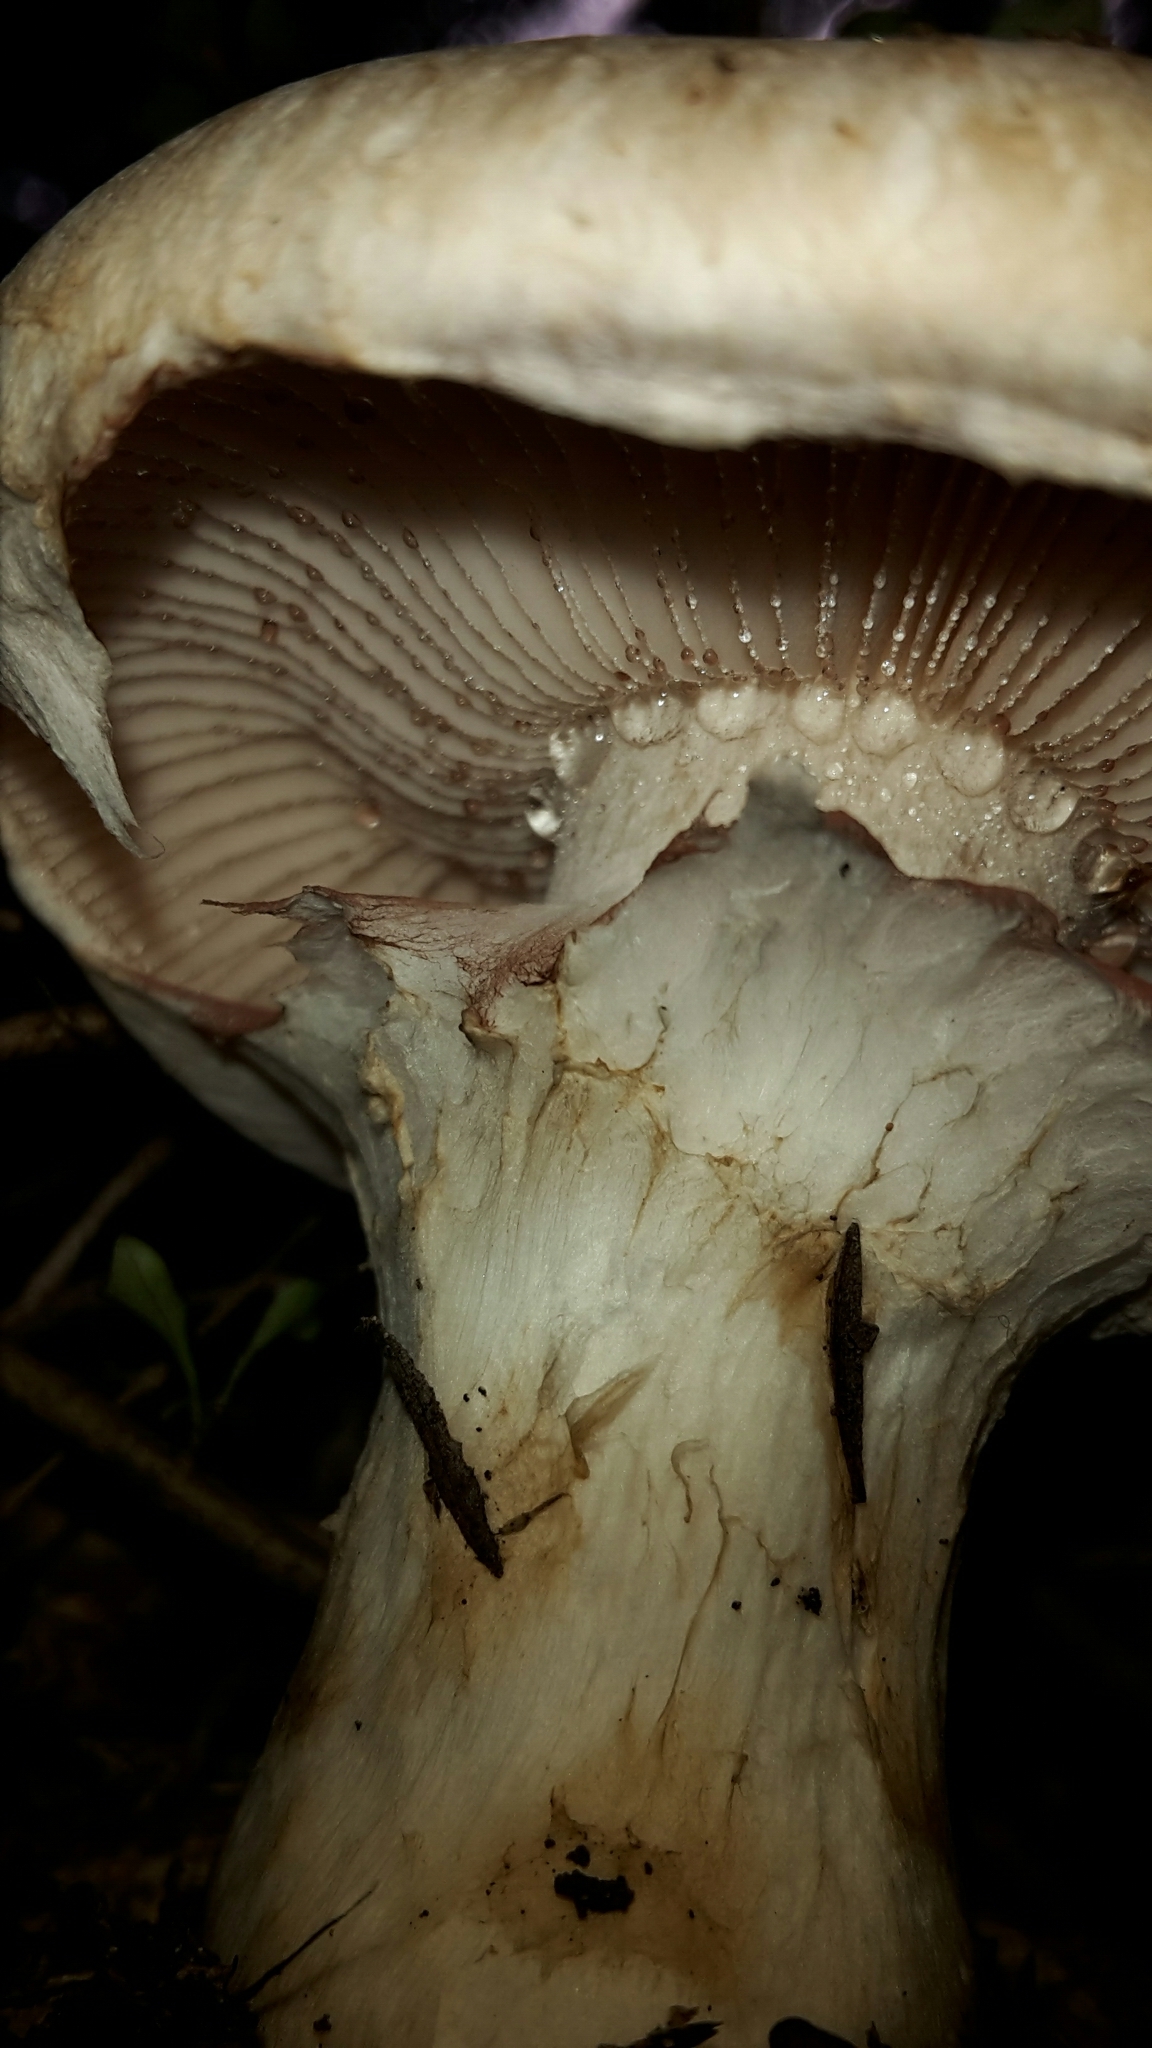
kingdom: Fungi
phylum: Basidiomycota
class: Agaricomycetes
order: Agaricales
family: Hymenogastraceae
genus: Hebeloma
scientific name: Hebeloma victoriense
